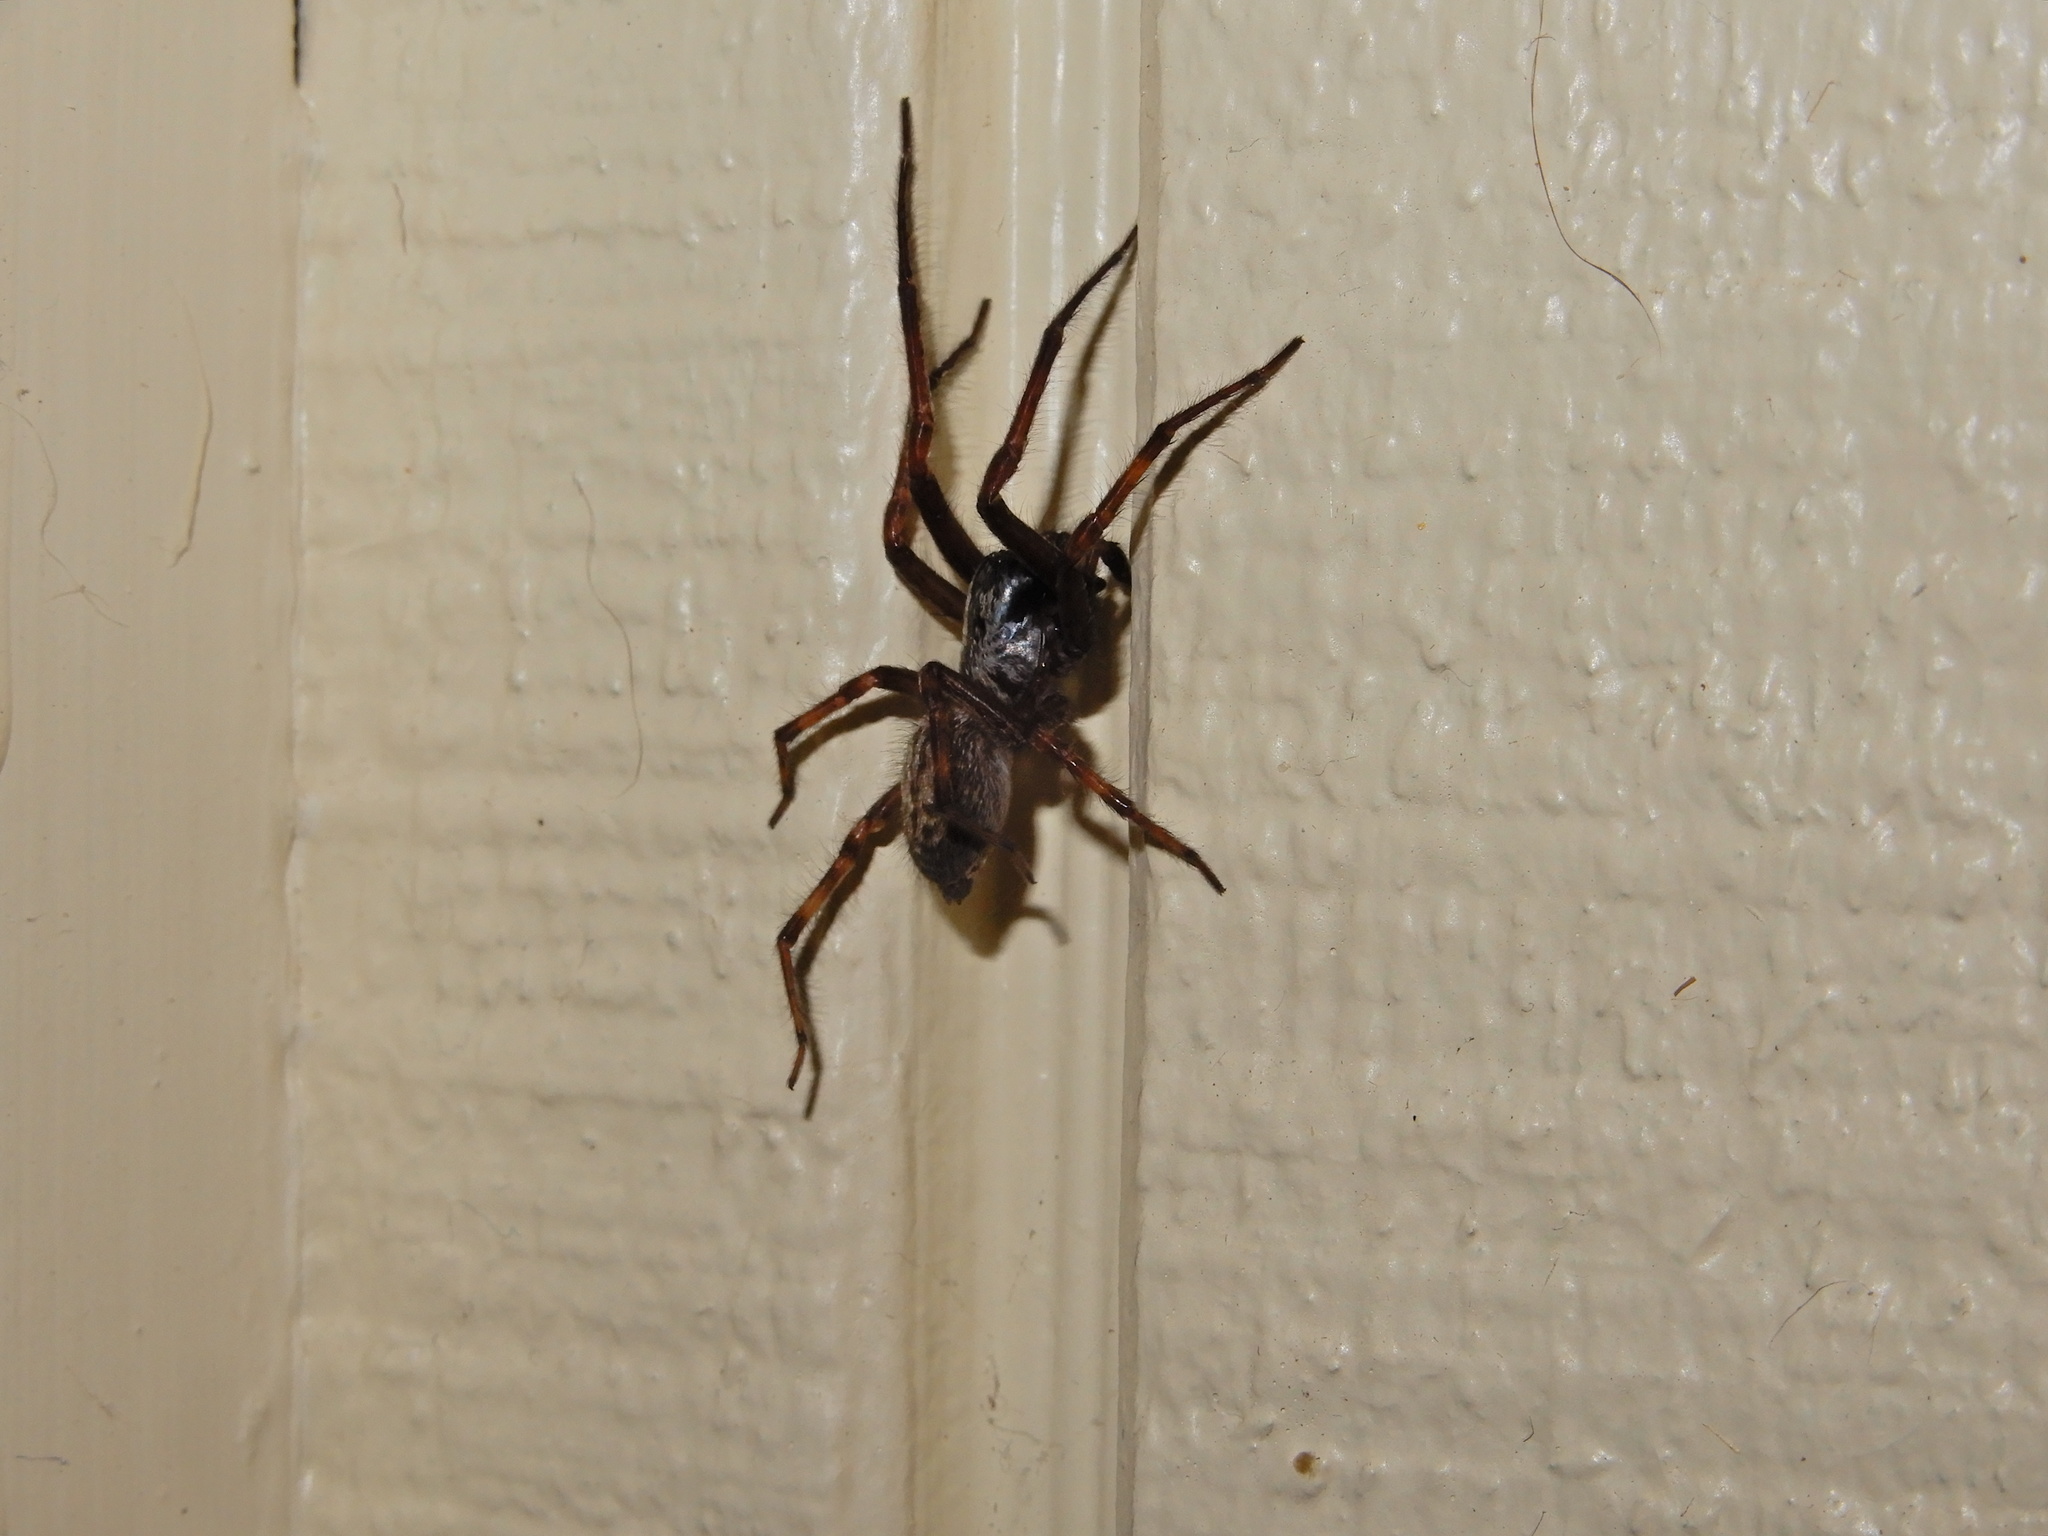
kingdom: Animalia
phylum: Arthropoda
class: Arachnida
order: Araneae
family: Desidae
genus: Badumna
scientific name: Badumna longinqua
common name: Gray house spider
